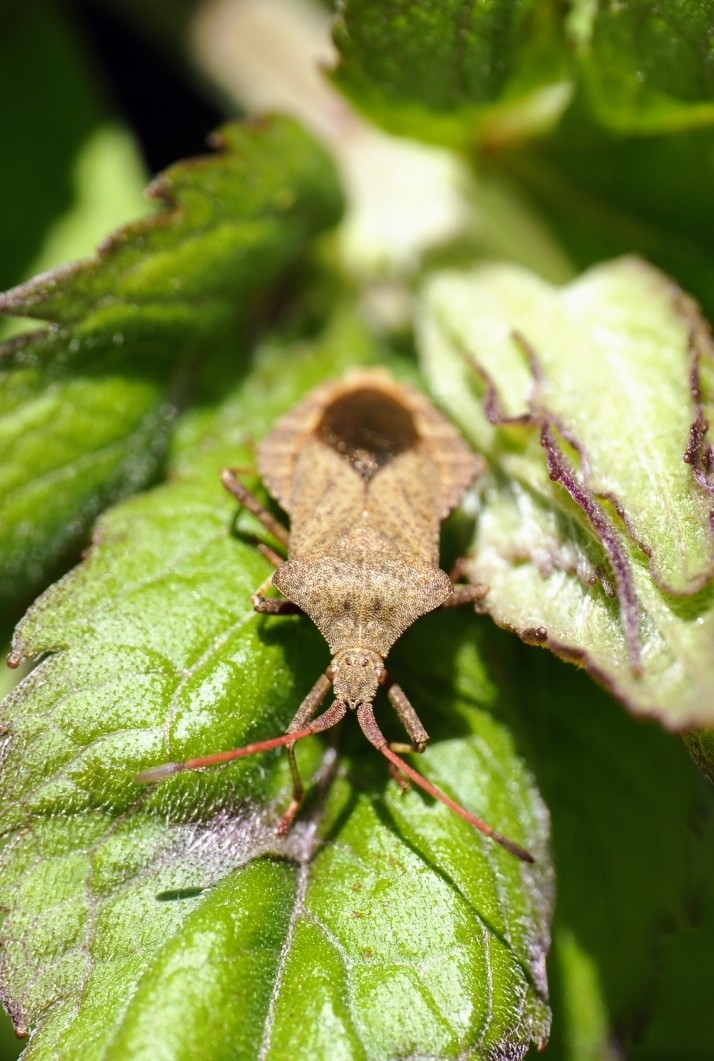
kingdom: Animalia
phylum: Arthropoda
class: Insecta
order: Hemiptera
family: Coreidae
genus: Coreus
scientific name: Coreus marginatus
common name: Dock bug
